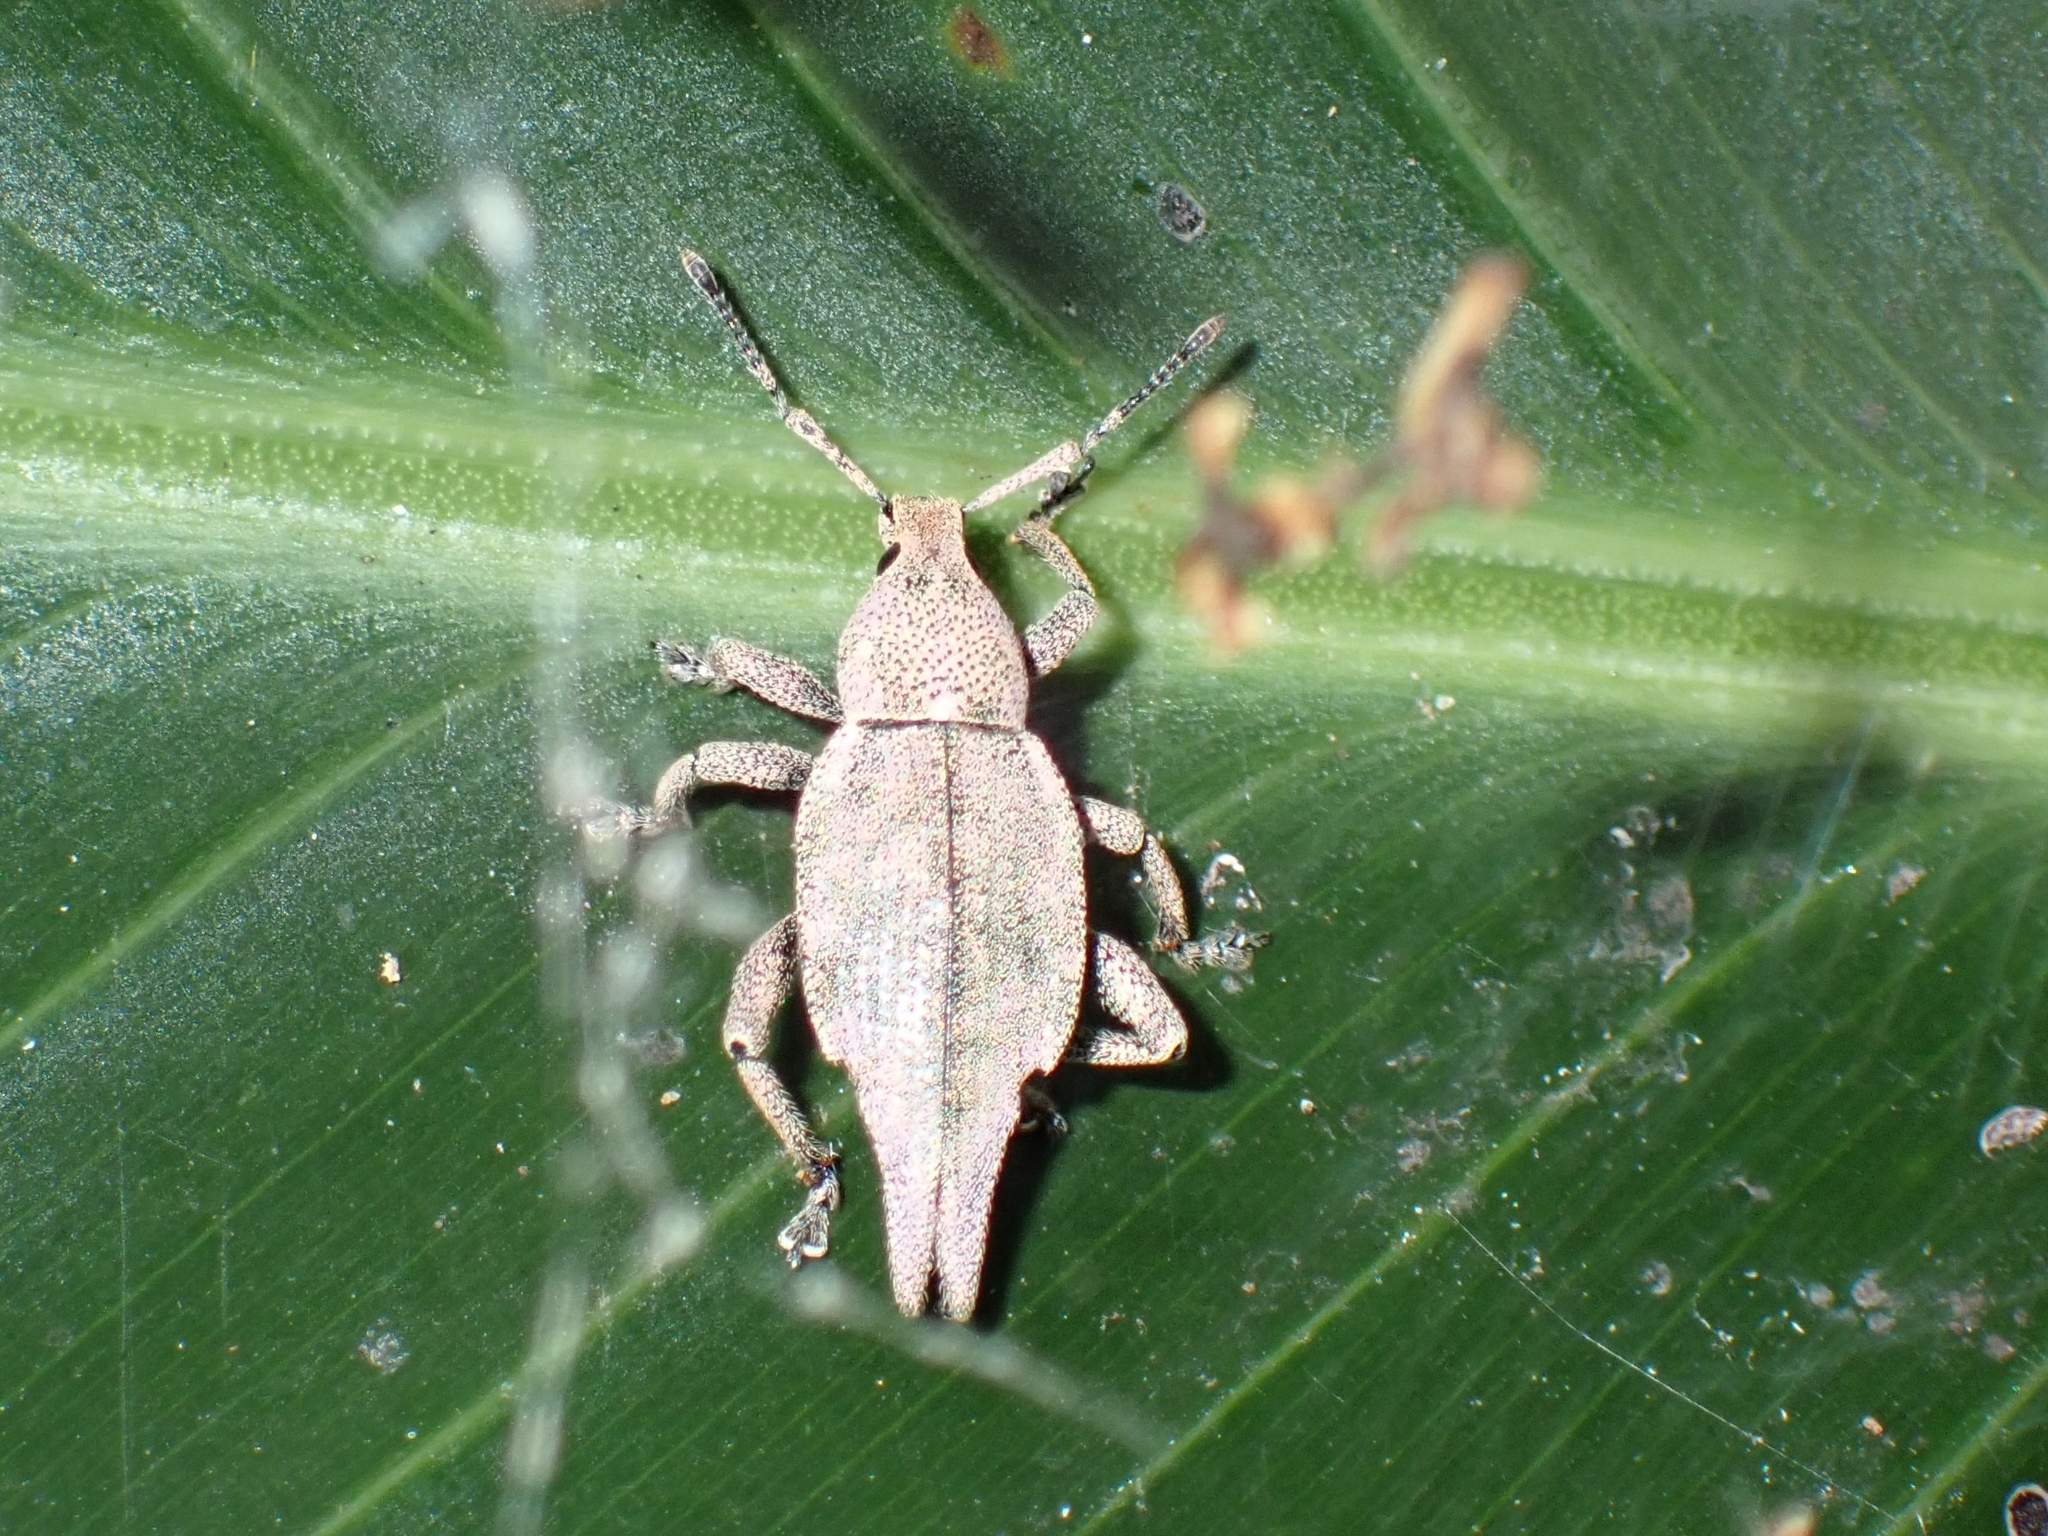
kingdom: Animalia
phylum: Arthropoda
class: Insecta
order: Coleoptera
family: Curculionidae
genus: Elytrurus
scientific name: Elytrurus caudatus
